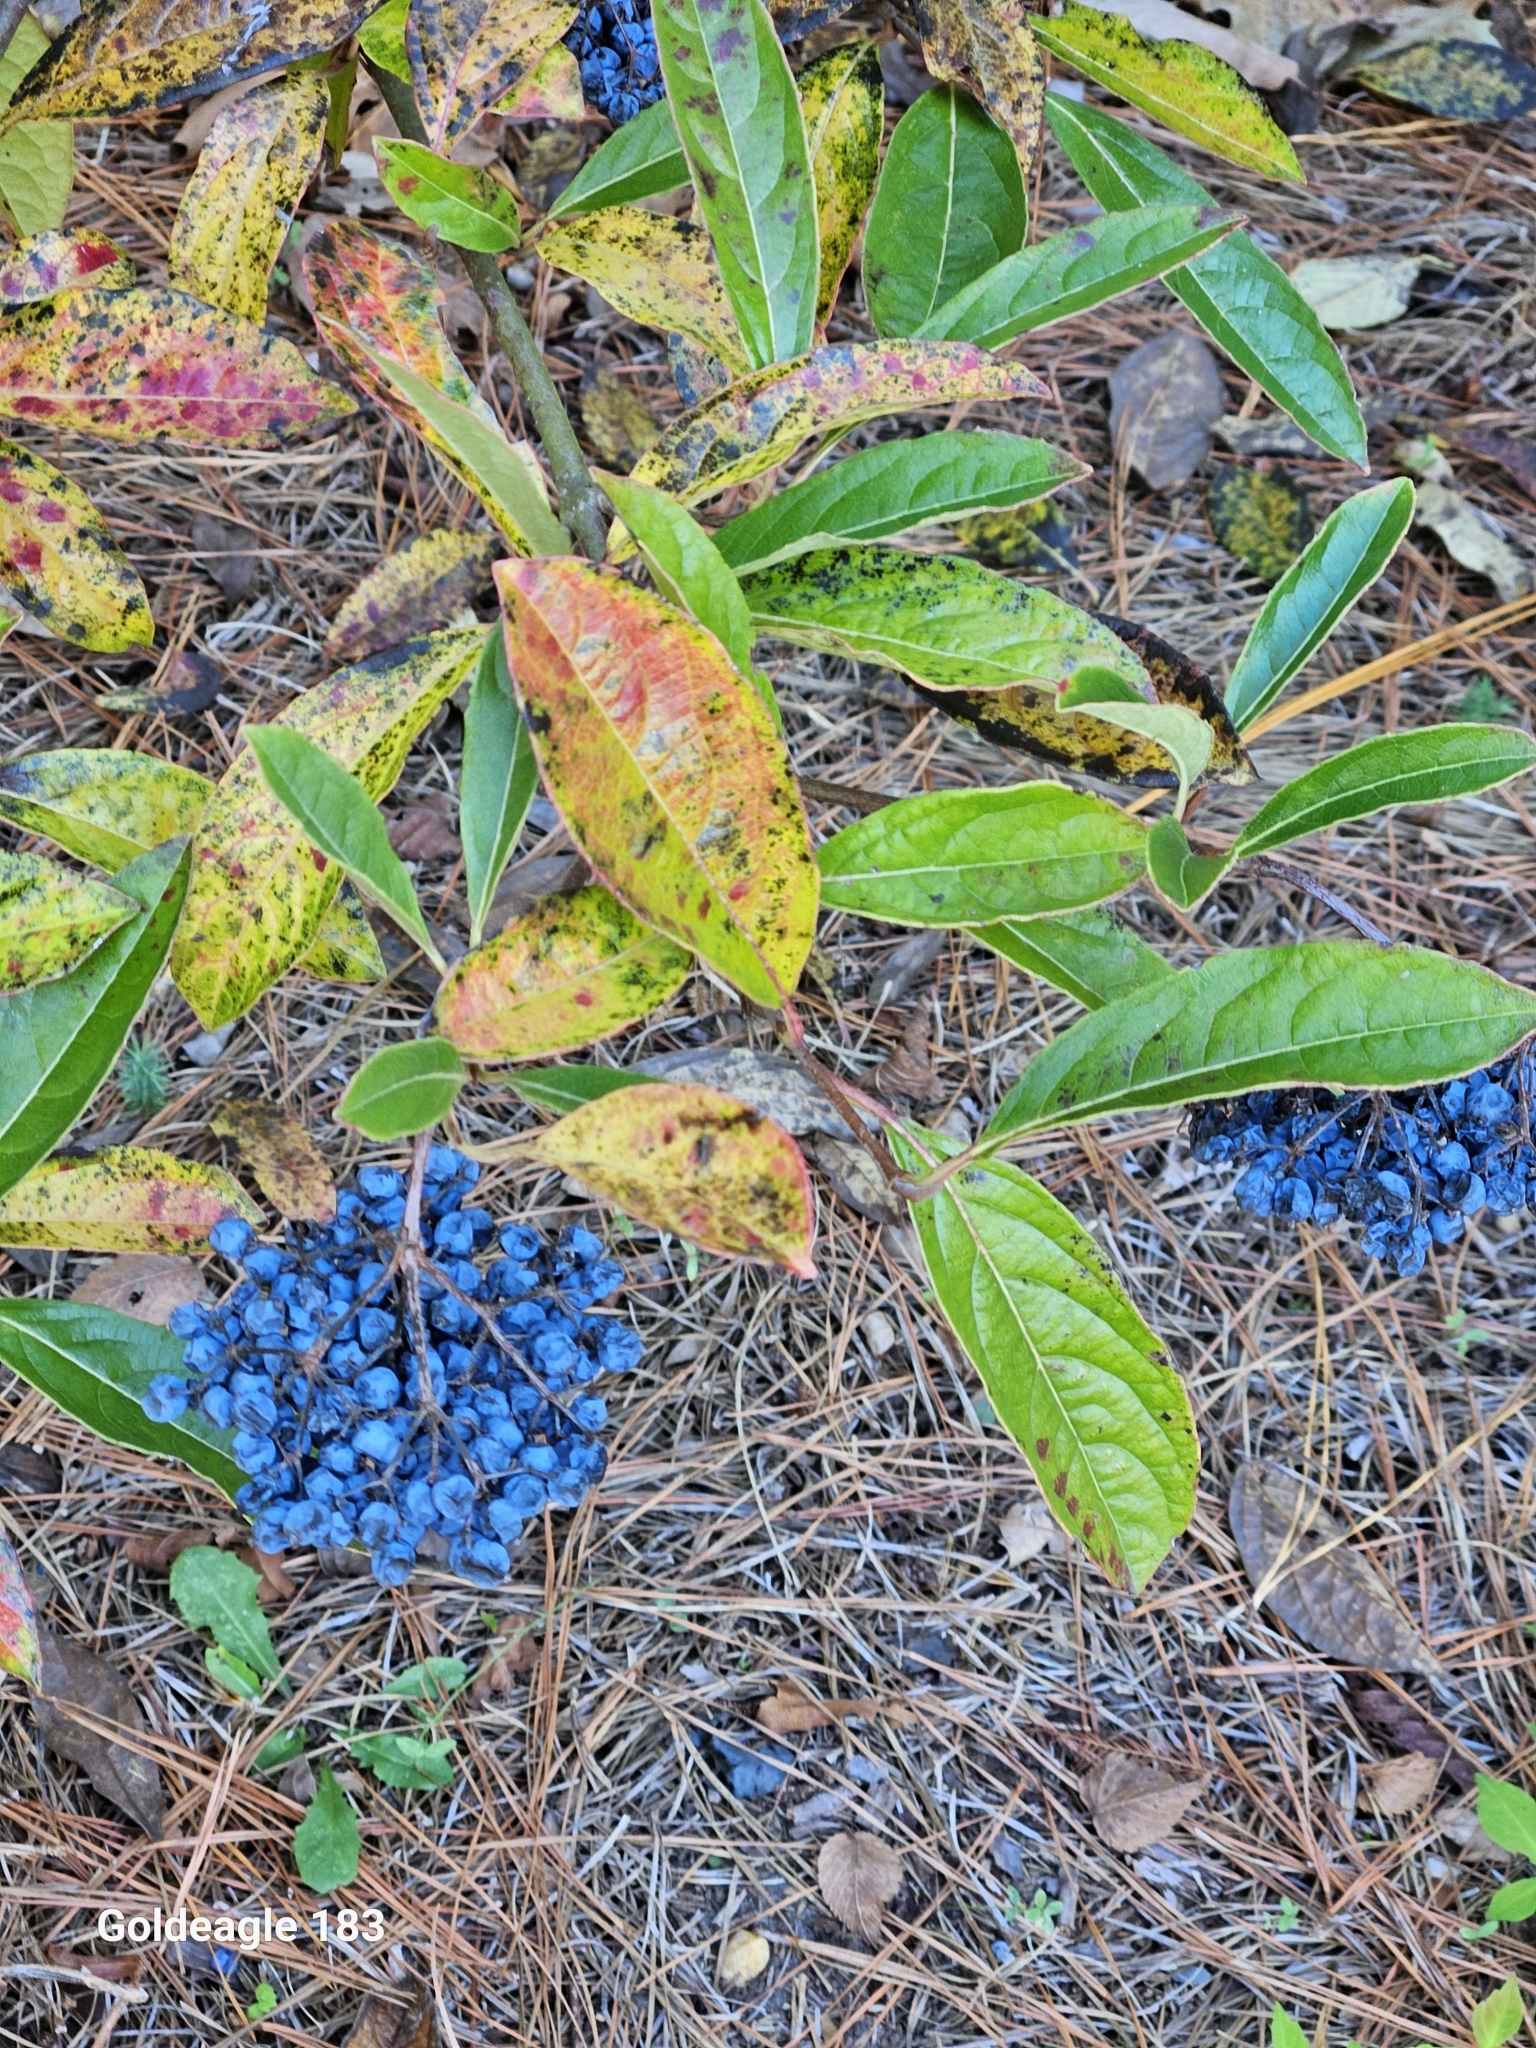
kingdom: Plantae
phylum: Tracheophyta
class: Magnoliopsida
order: Dipsacales
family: Viburnaceae
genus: Viburnum
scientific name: Viburnum nudum
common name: Possum haw
